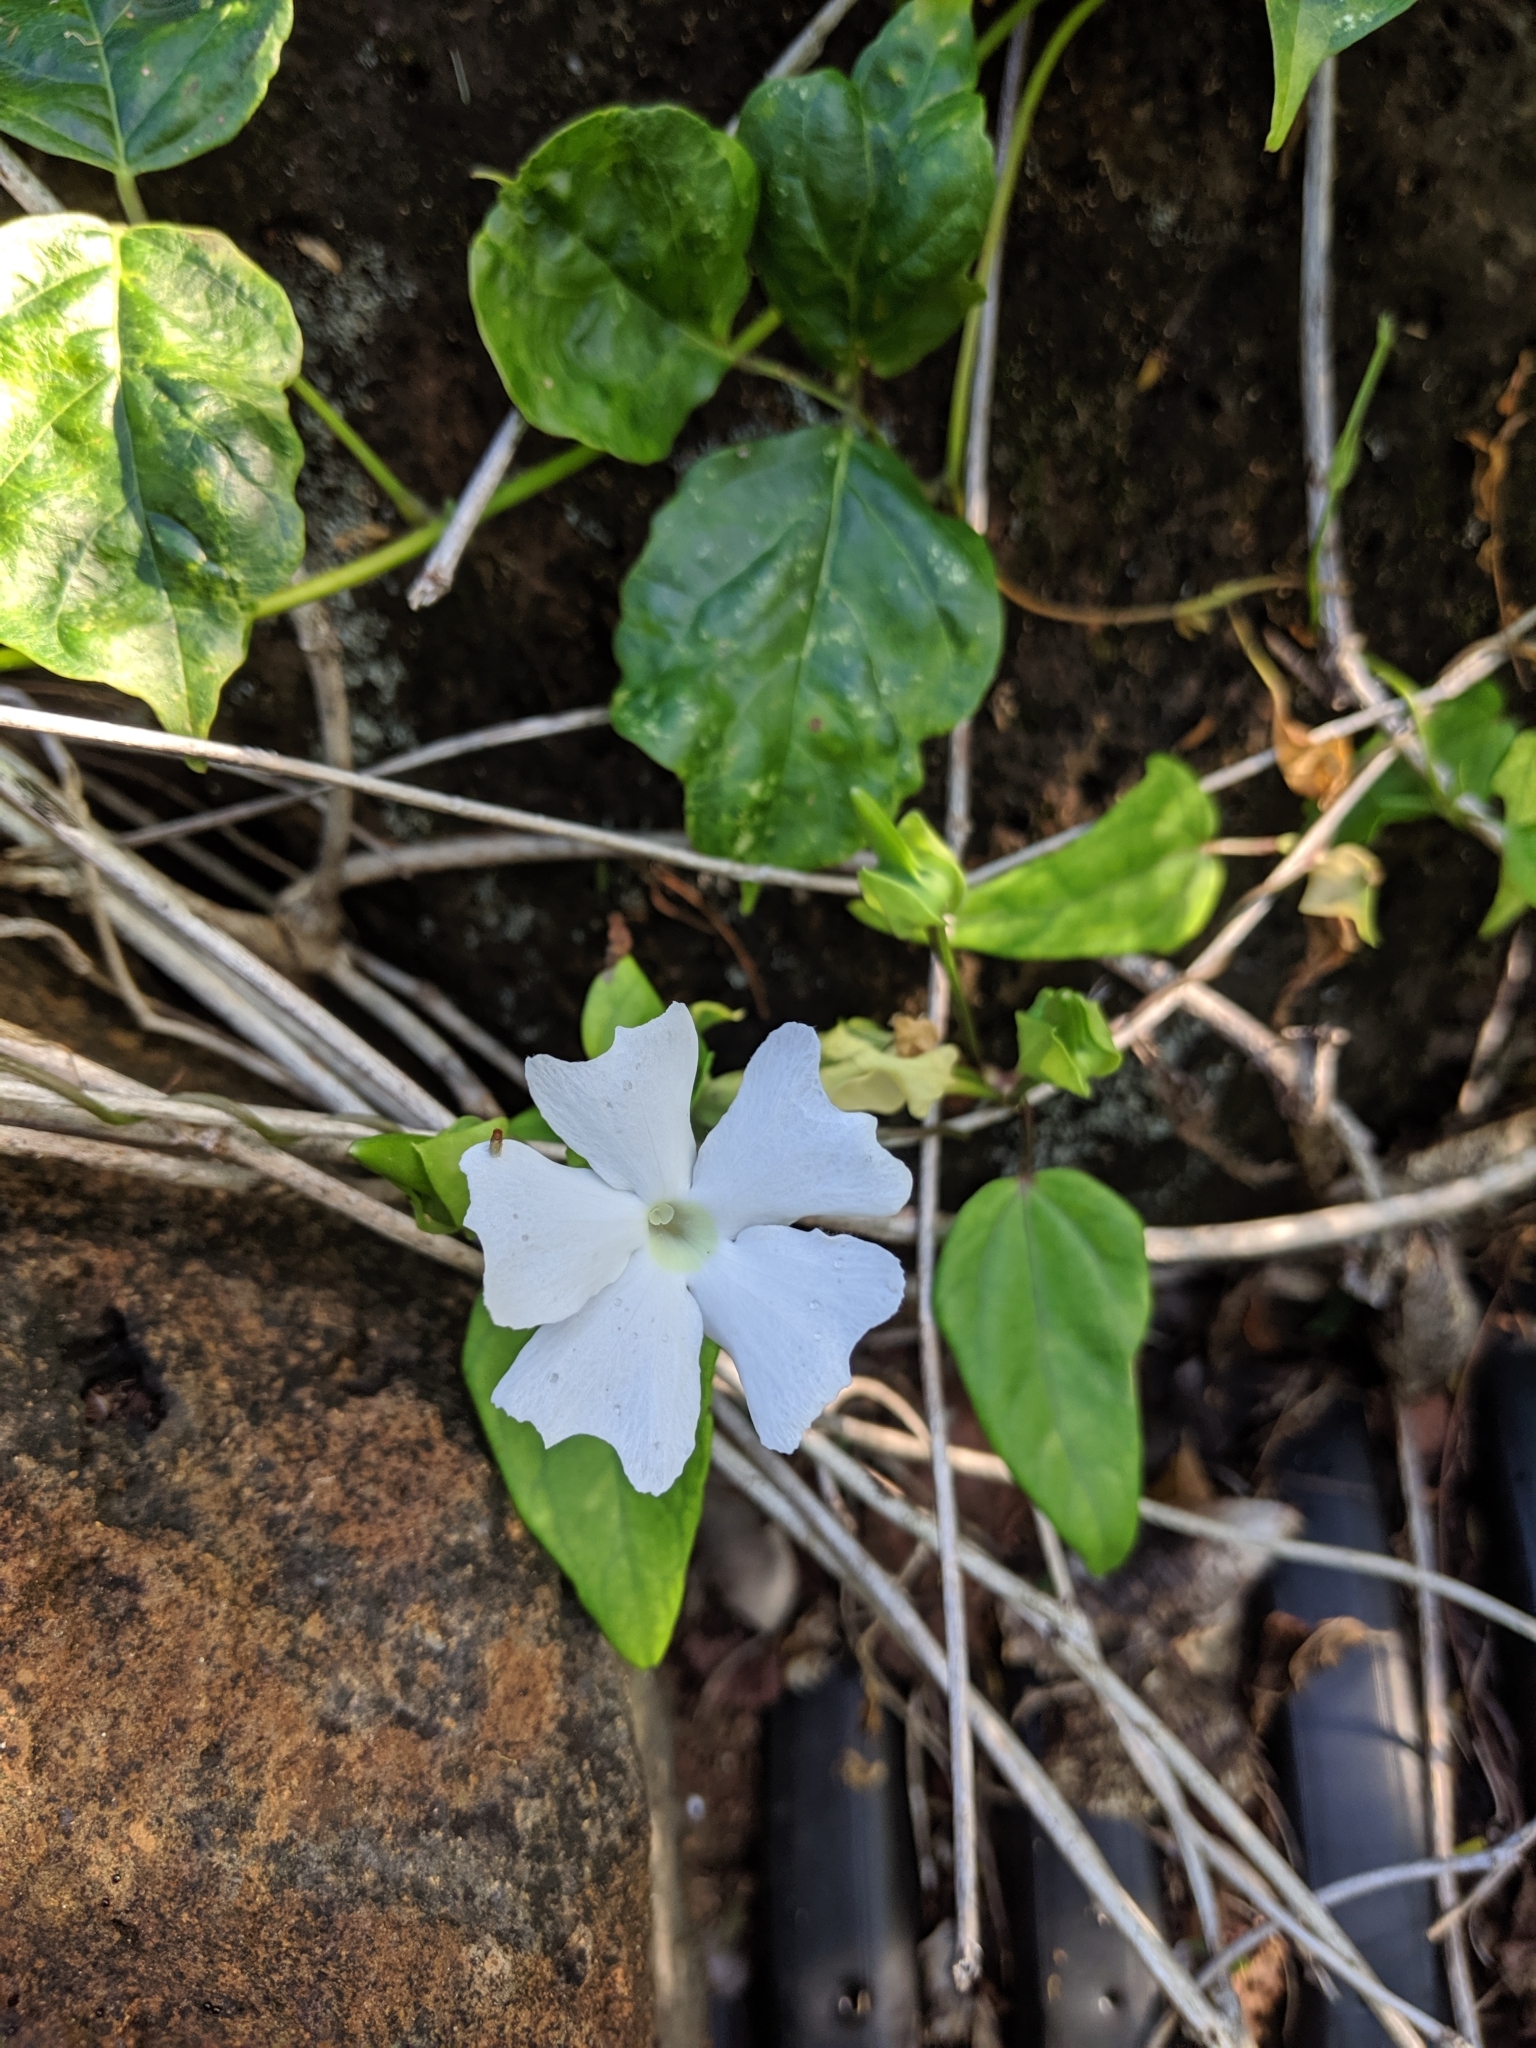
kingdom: Plantae
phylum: Tracheophyta
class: Magnoliopsida
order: Lamiales
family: Acanthaceae
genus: Thunbergia
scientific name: Thunbergia fragrans
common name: Whitelady
